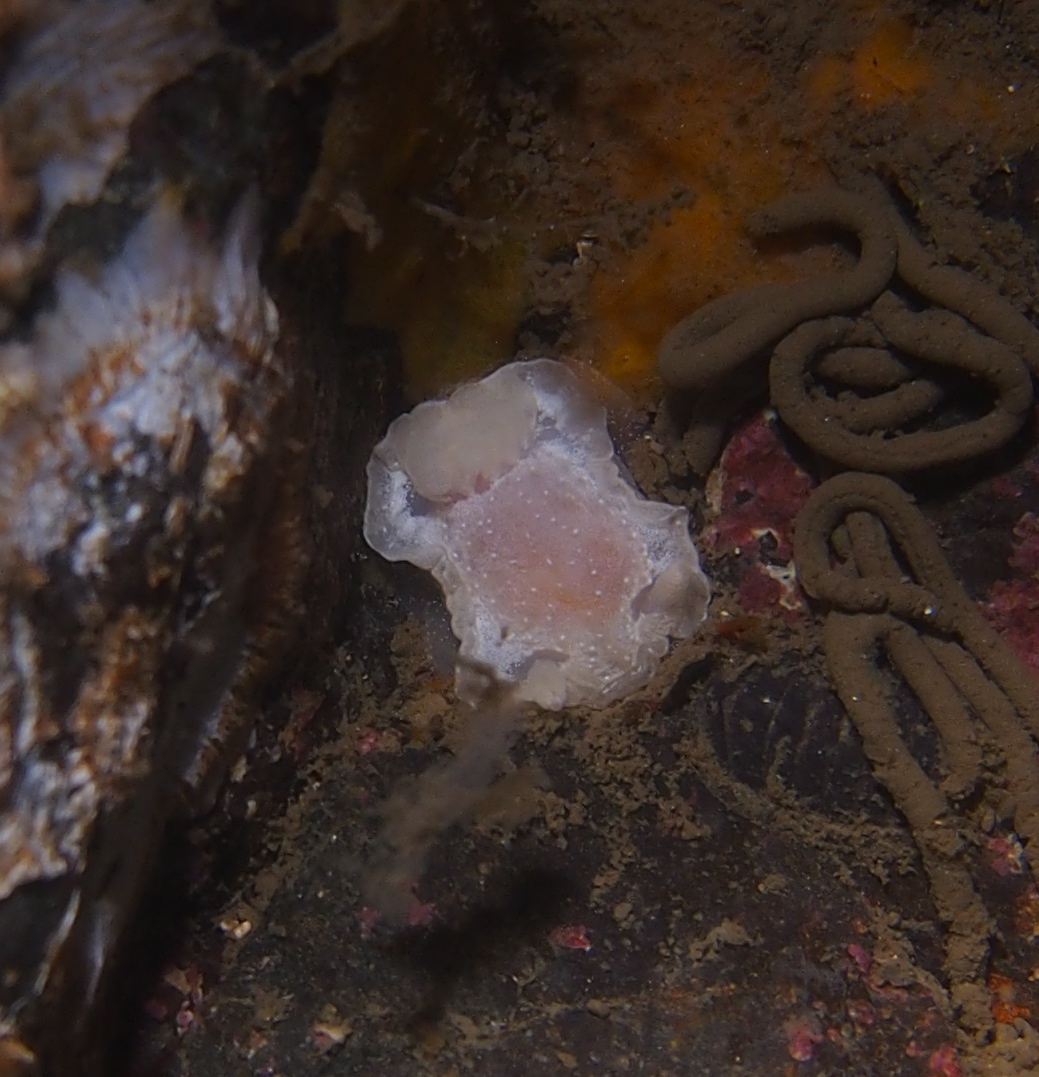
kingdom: Animalia
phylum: Mollusca
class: Gastropoda
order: Nudibranchia
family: Goniodorididae
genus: Okenia
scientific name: Okenia
